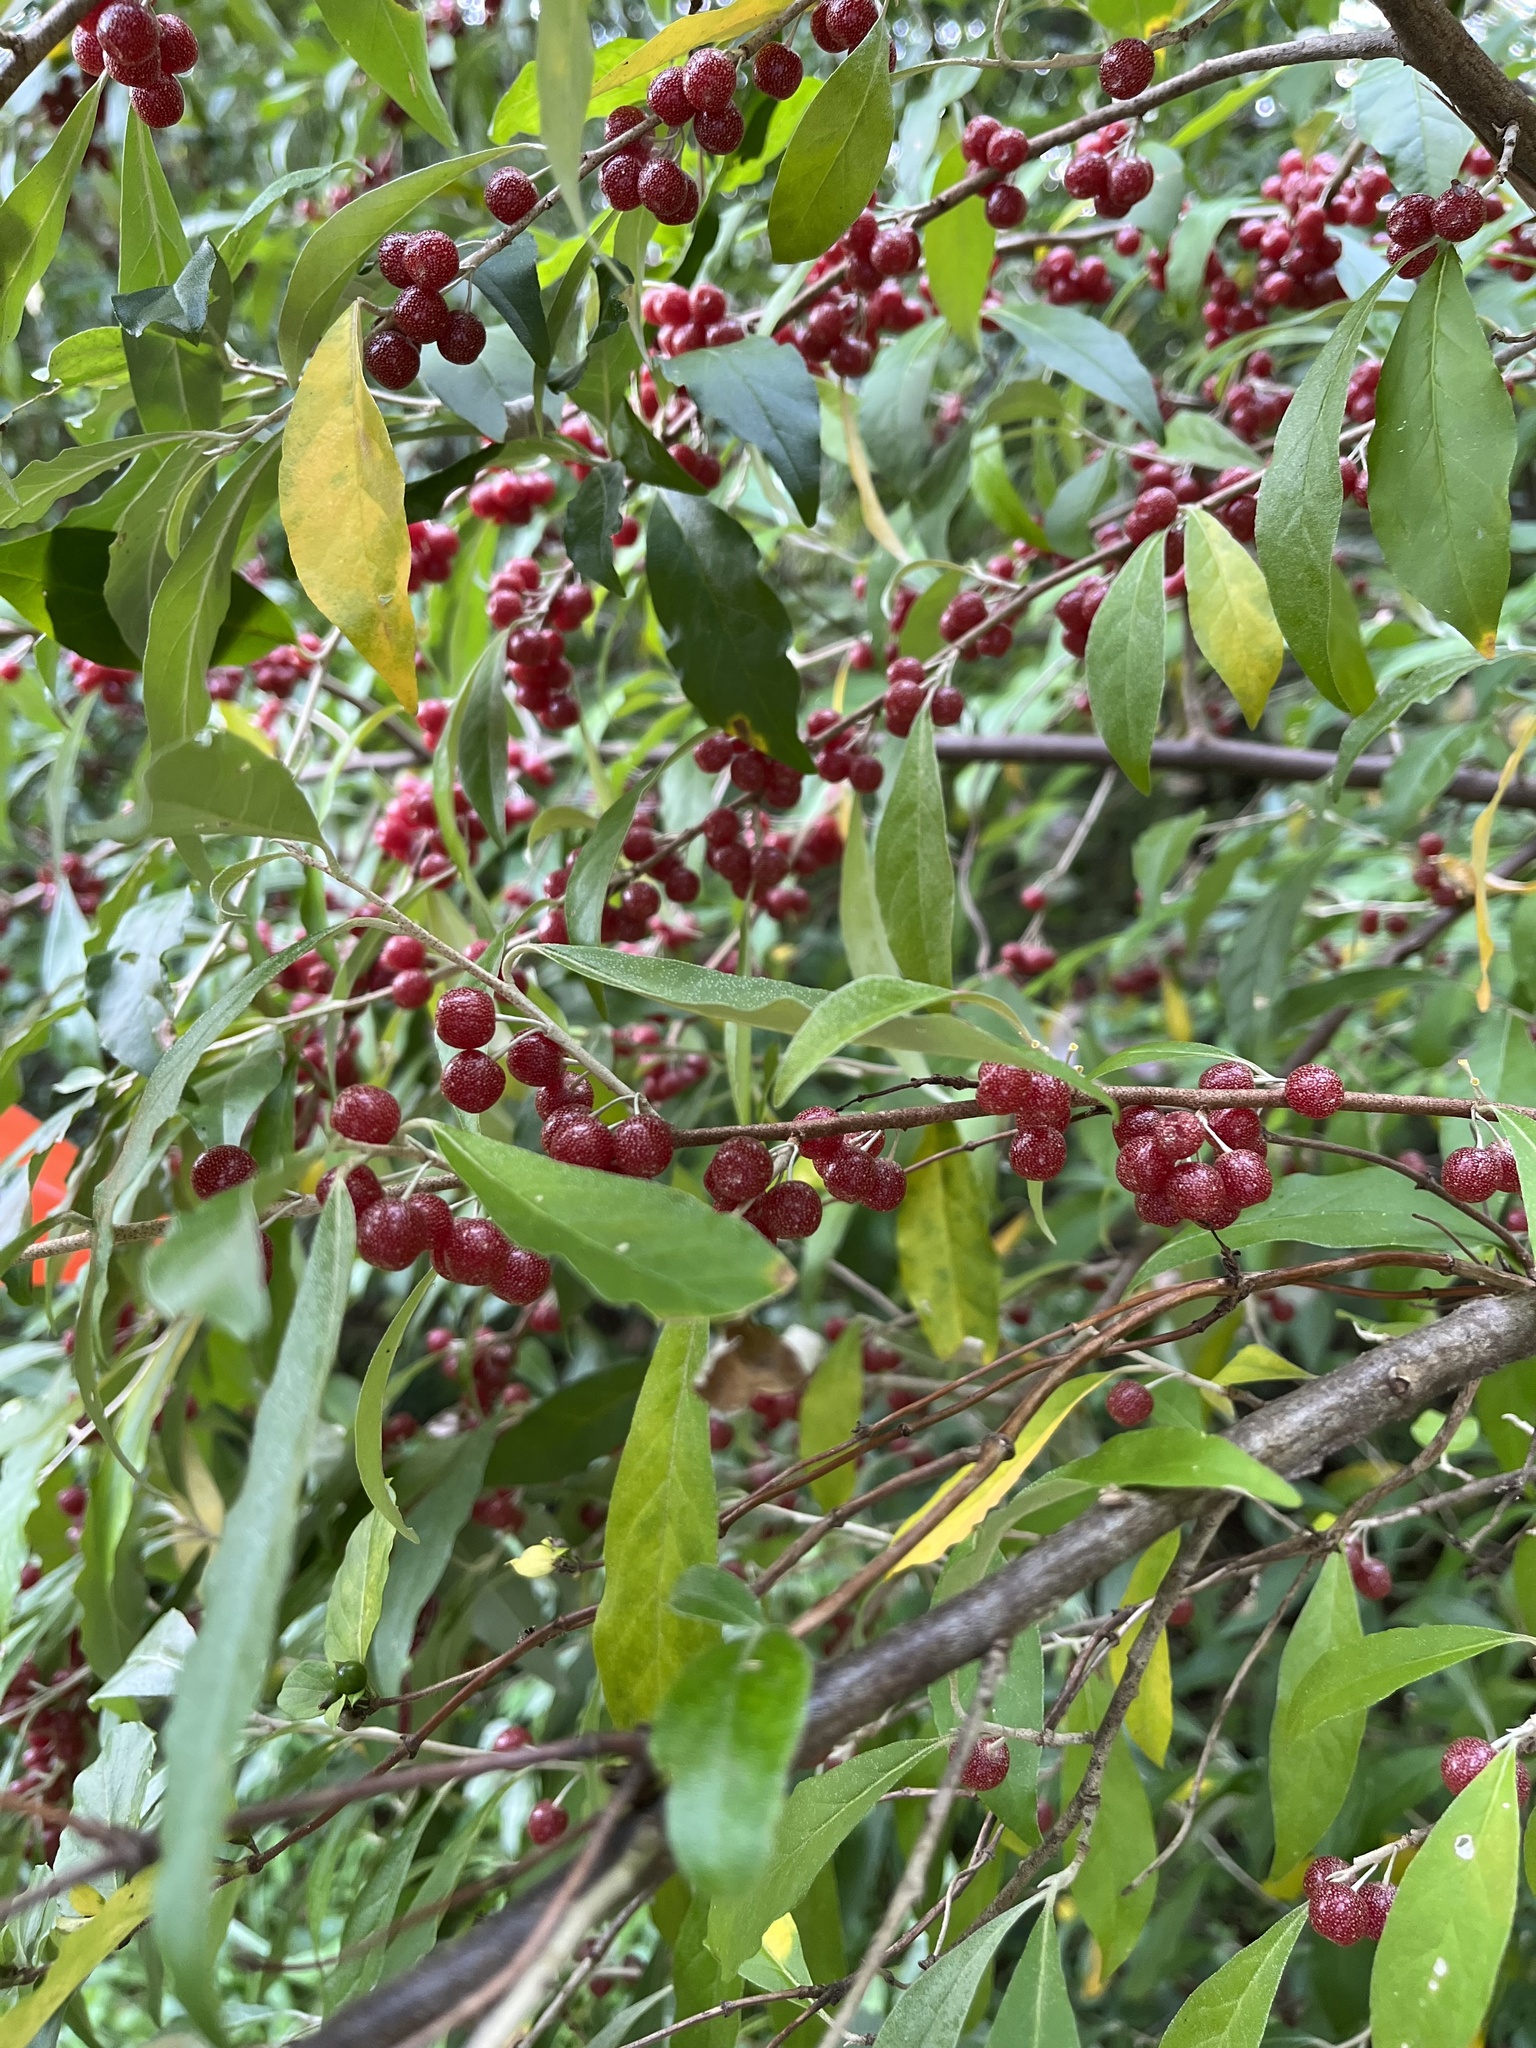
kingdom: Plantae
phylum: Tracheophyta
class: Magnoliopsida
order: Rosales
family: Elaeagnaceae
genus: Elaeagnus
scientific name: Elaeagnus umbellata
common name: Autumn olive
